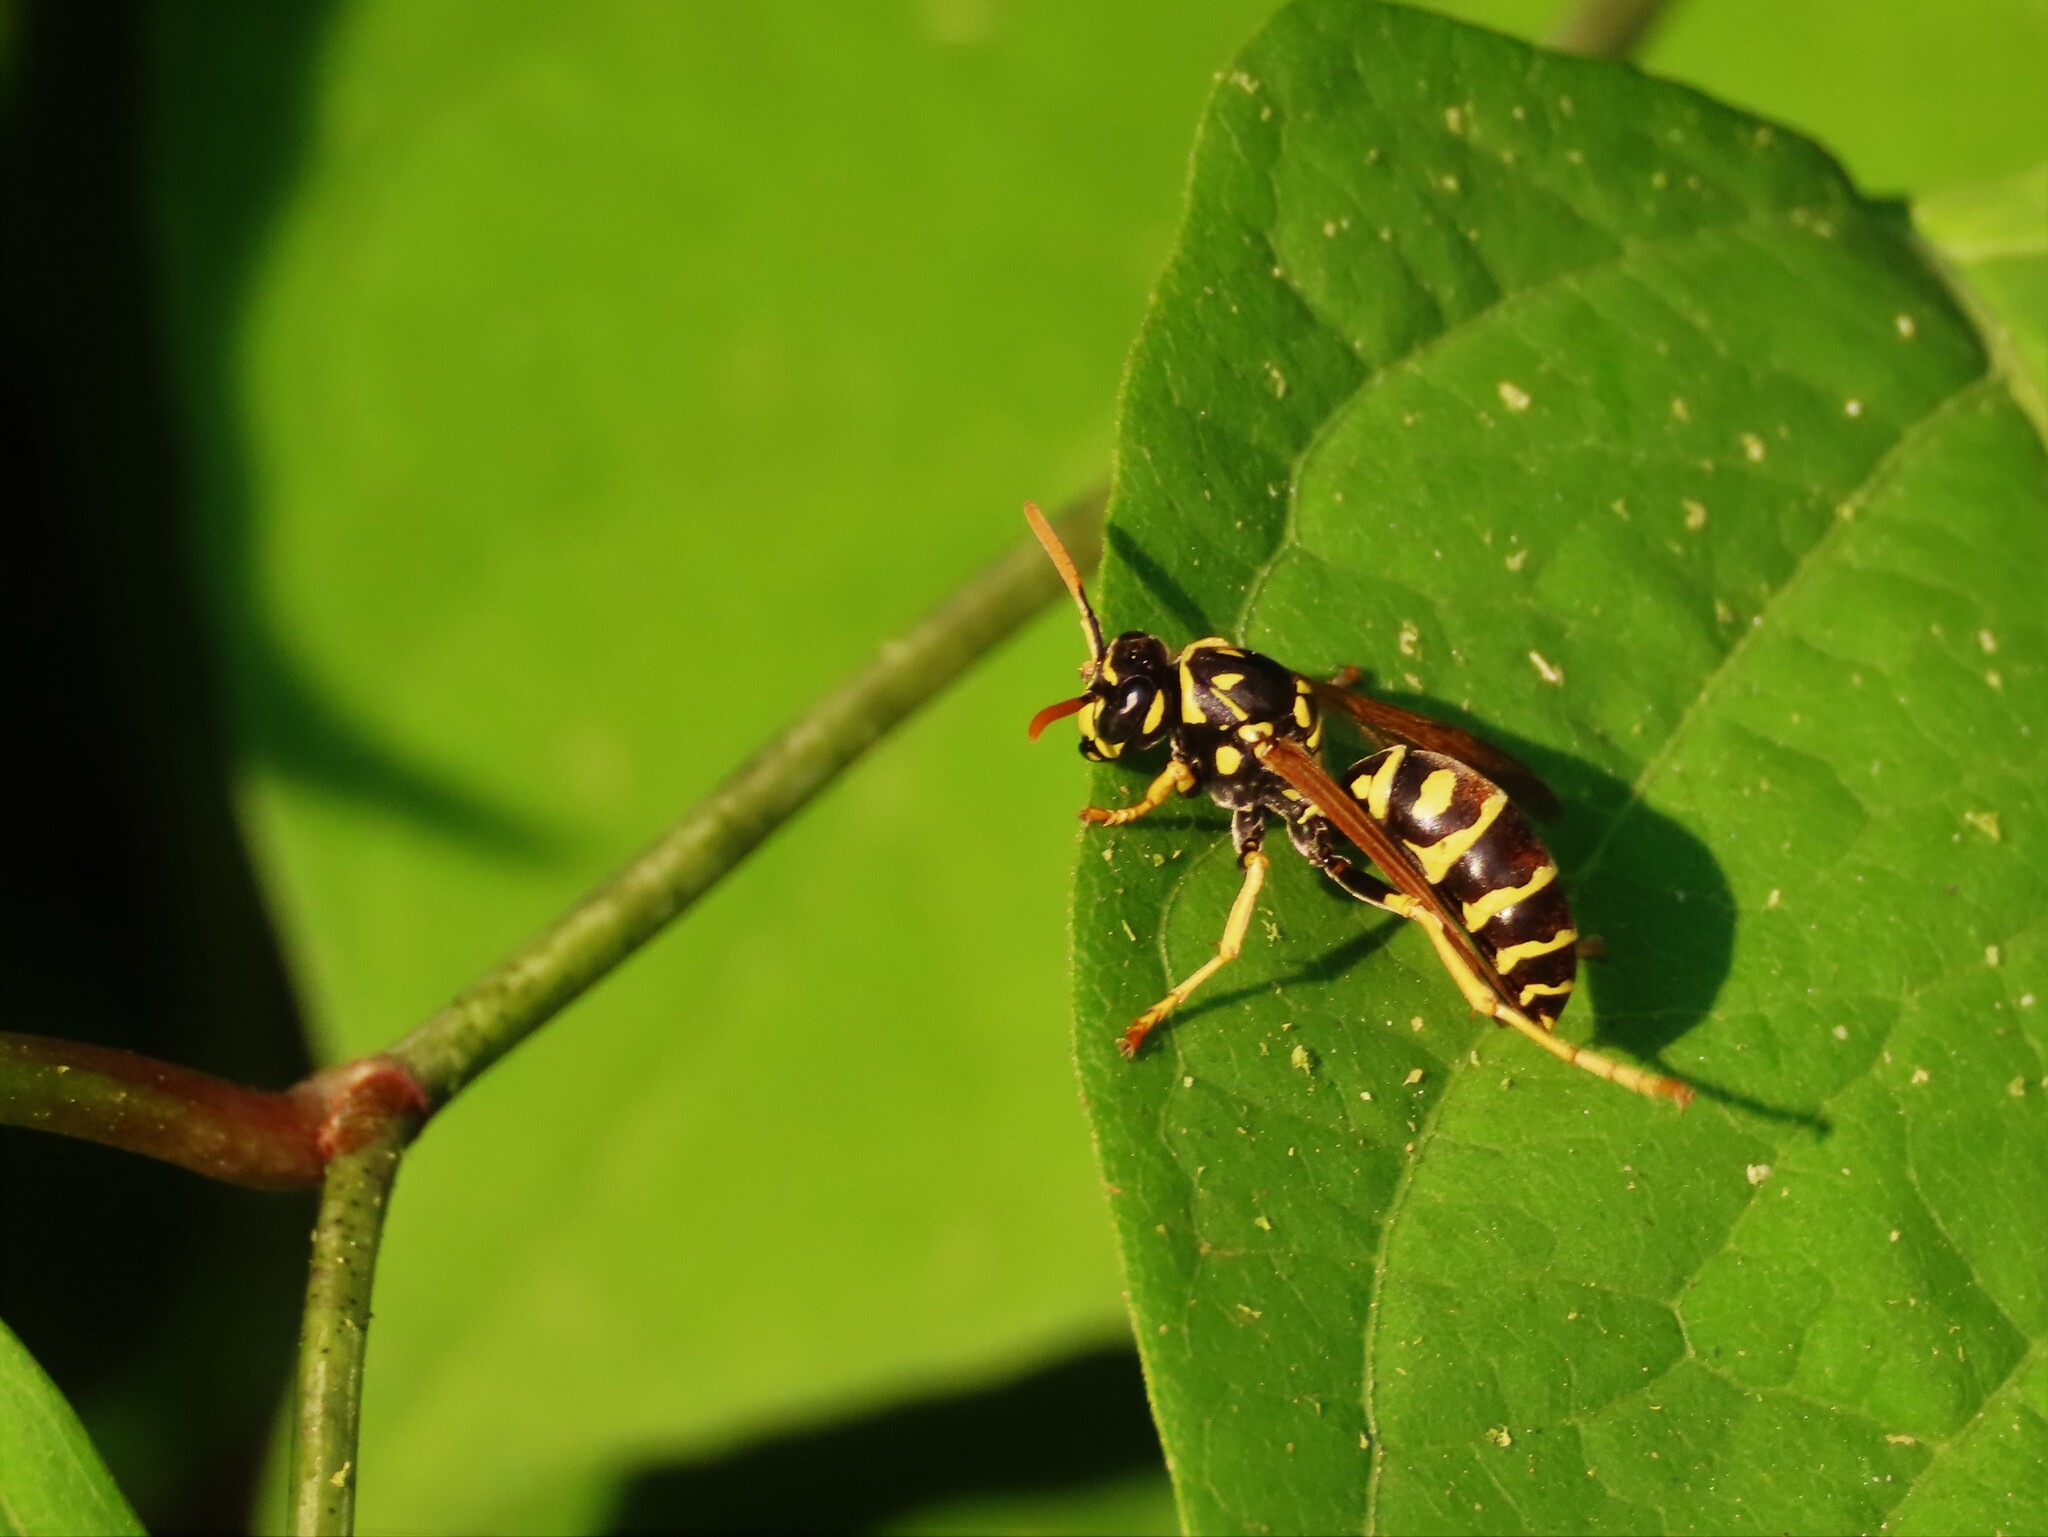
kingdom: Animalia
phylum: Arthropoda
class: Insecta
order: Hymenoptera
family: Eumenidae
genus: Polistes
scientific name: Polistes dominula
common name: Paper wasp
